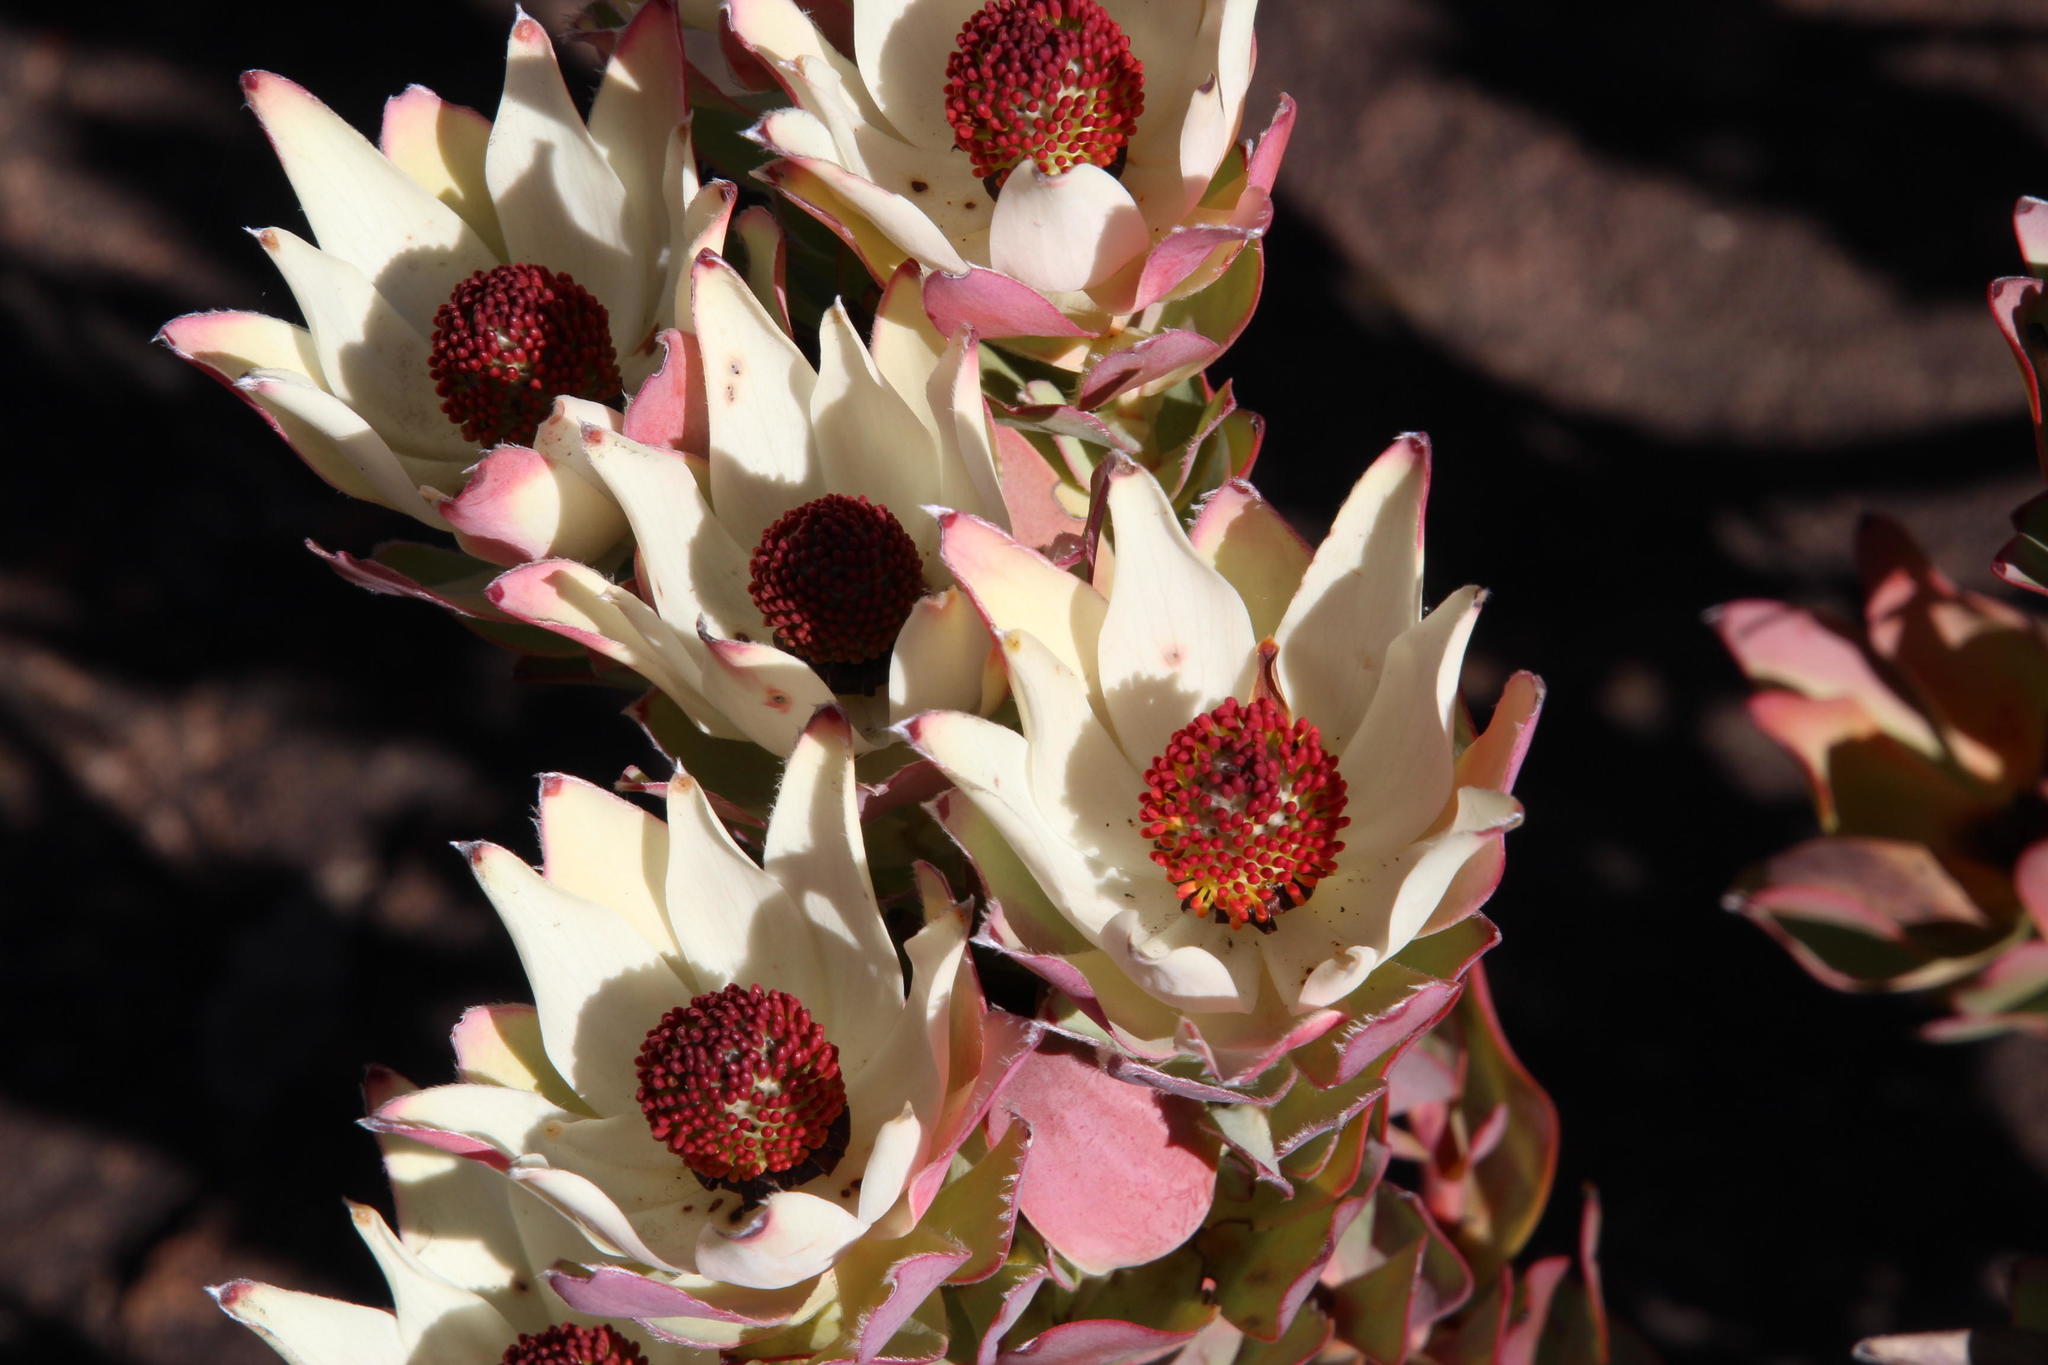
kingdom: Plantae
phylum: Tracheophyta
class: Magnoliopsida
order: Proteales
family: Proteaceae
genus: Leucadendron
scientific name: Leucadendron procerum
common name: Ivory conebush
